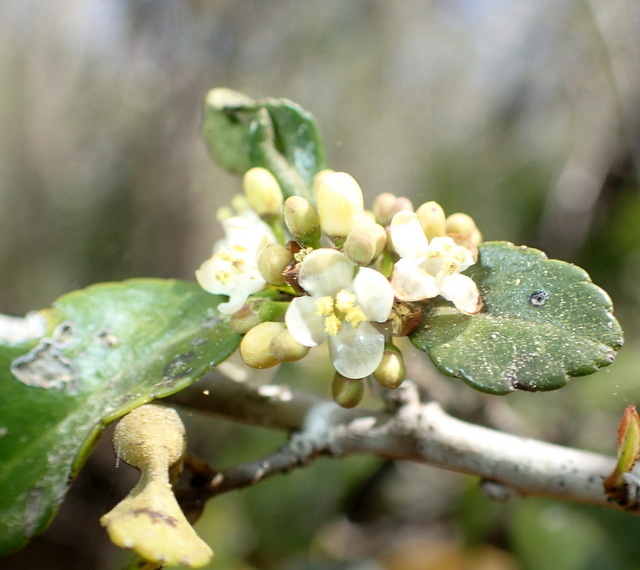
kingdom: Plantae
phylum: Tracheophyta
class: Magnoliopsida
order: Aquifoliales
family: Aquifoliaceae
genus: Ilex
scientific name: Ilex vomitoria
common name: Yaupon holly
